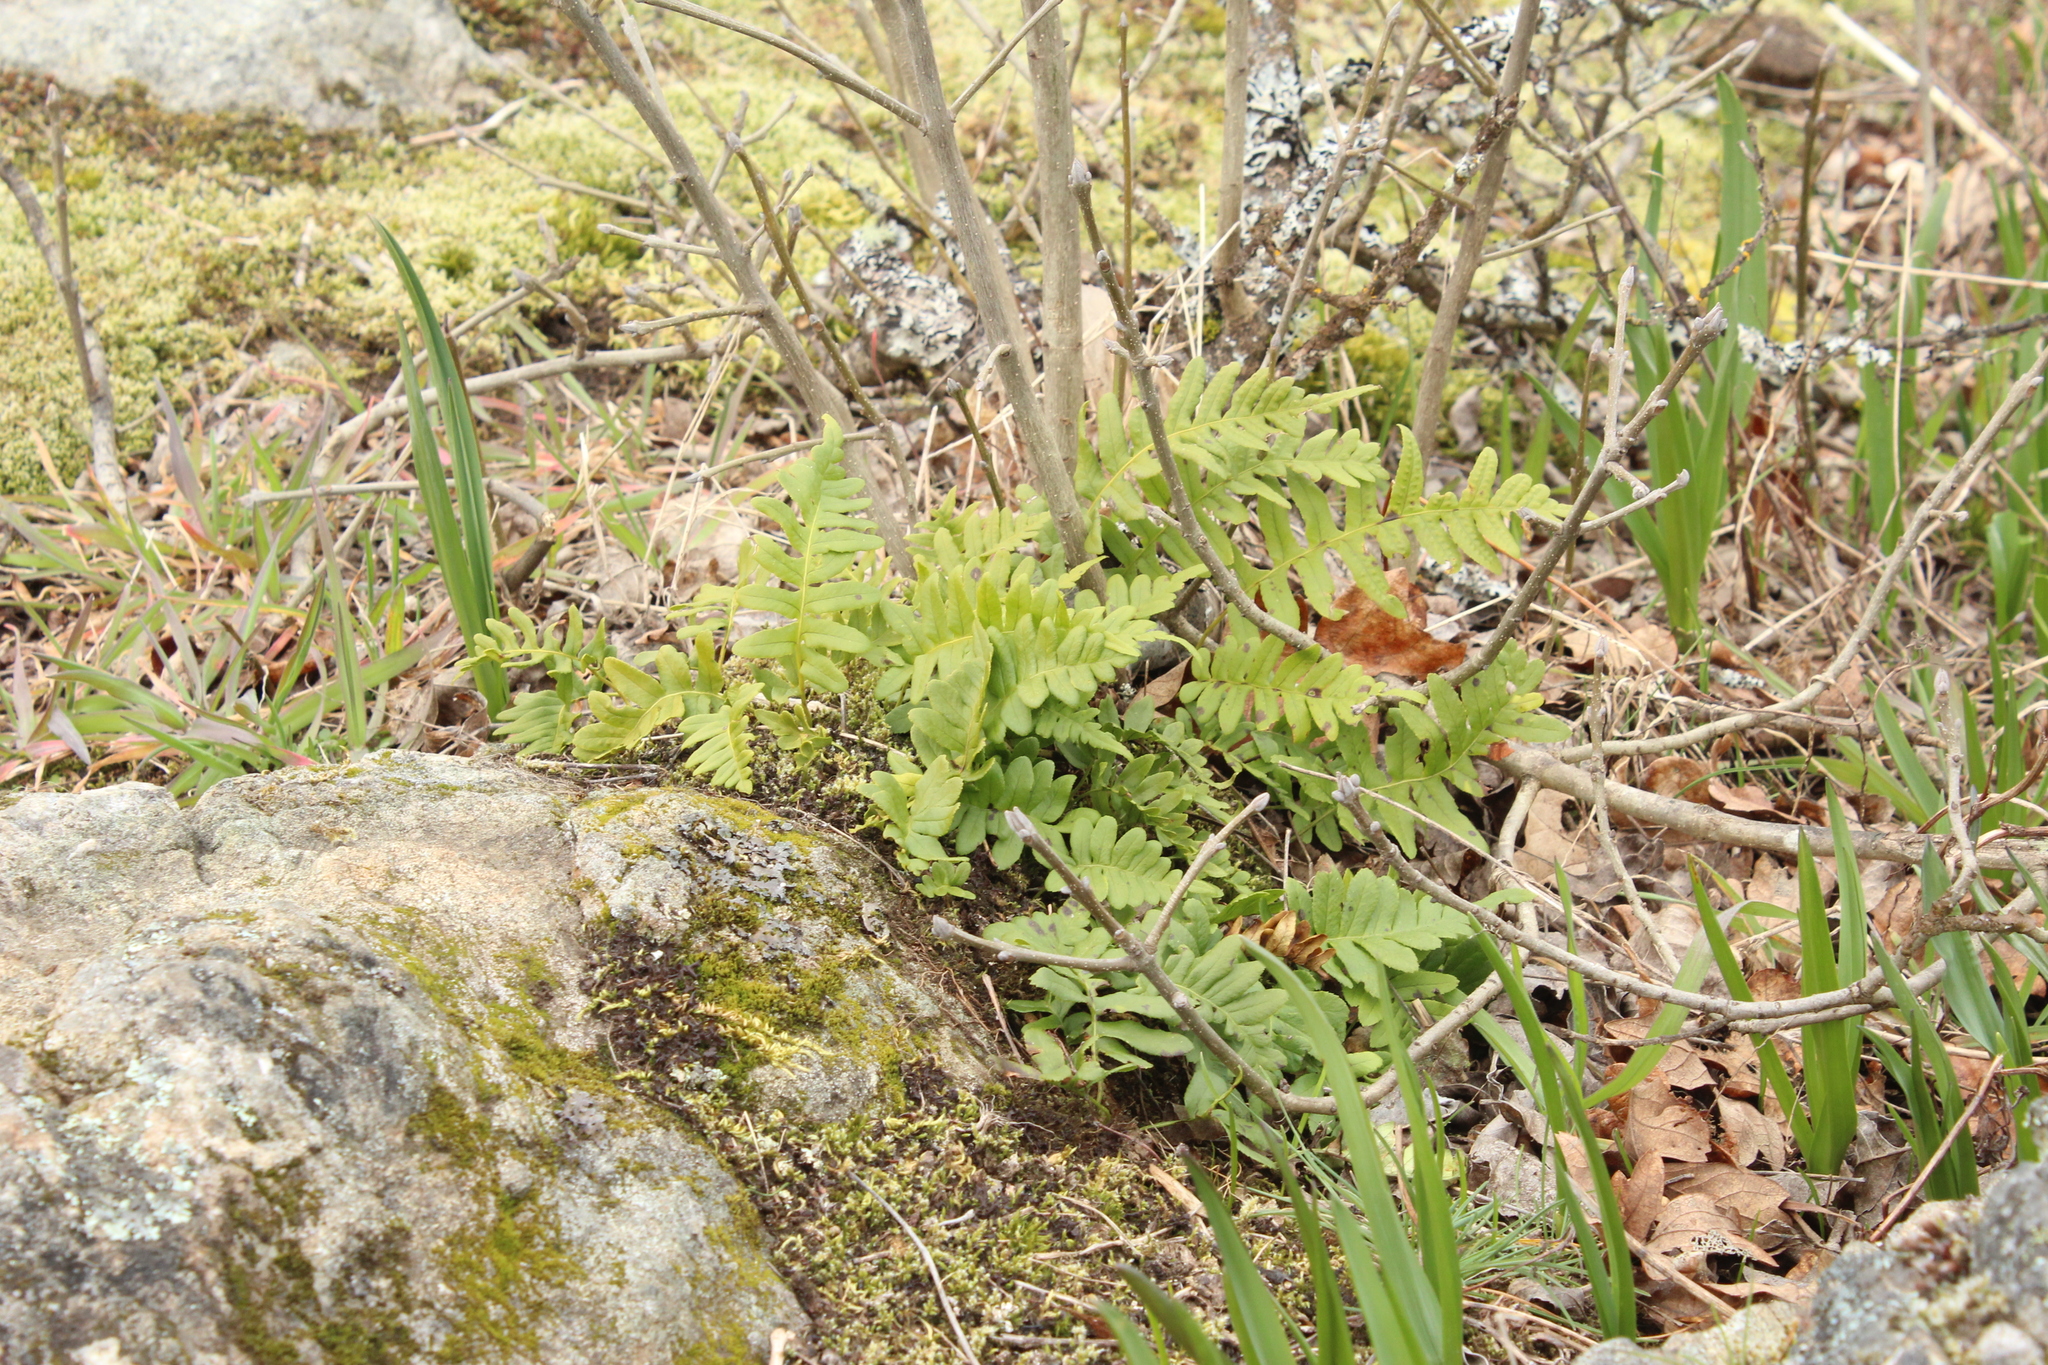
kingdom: Plantae
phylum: Tracheophyta
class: Polypodiopsida
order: Polypodiales
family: Polypodiaceae
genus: Polypodium
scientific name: Polypodium glycyrrhiza
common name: Licorice fern
